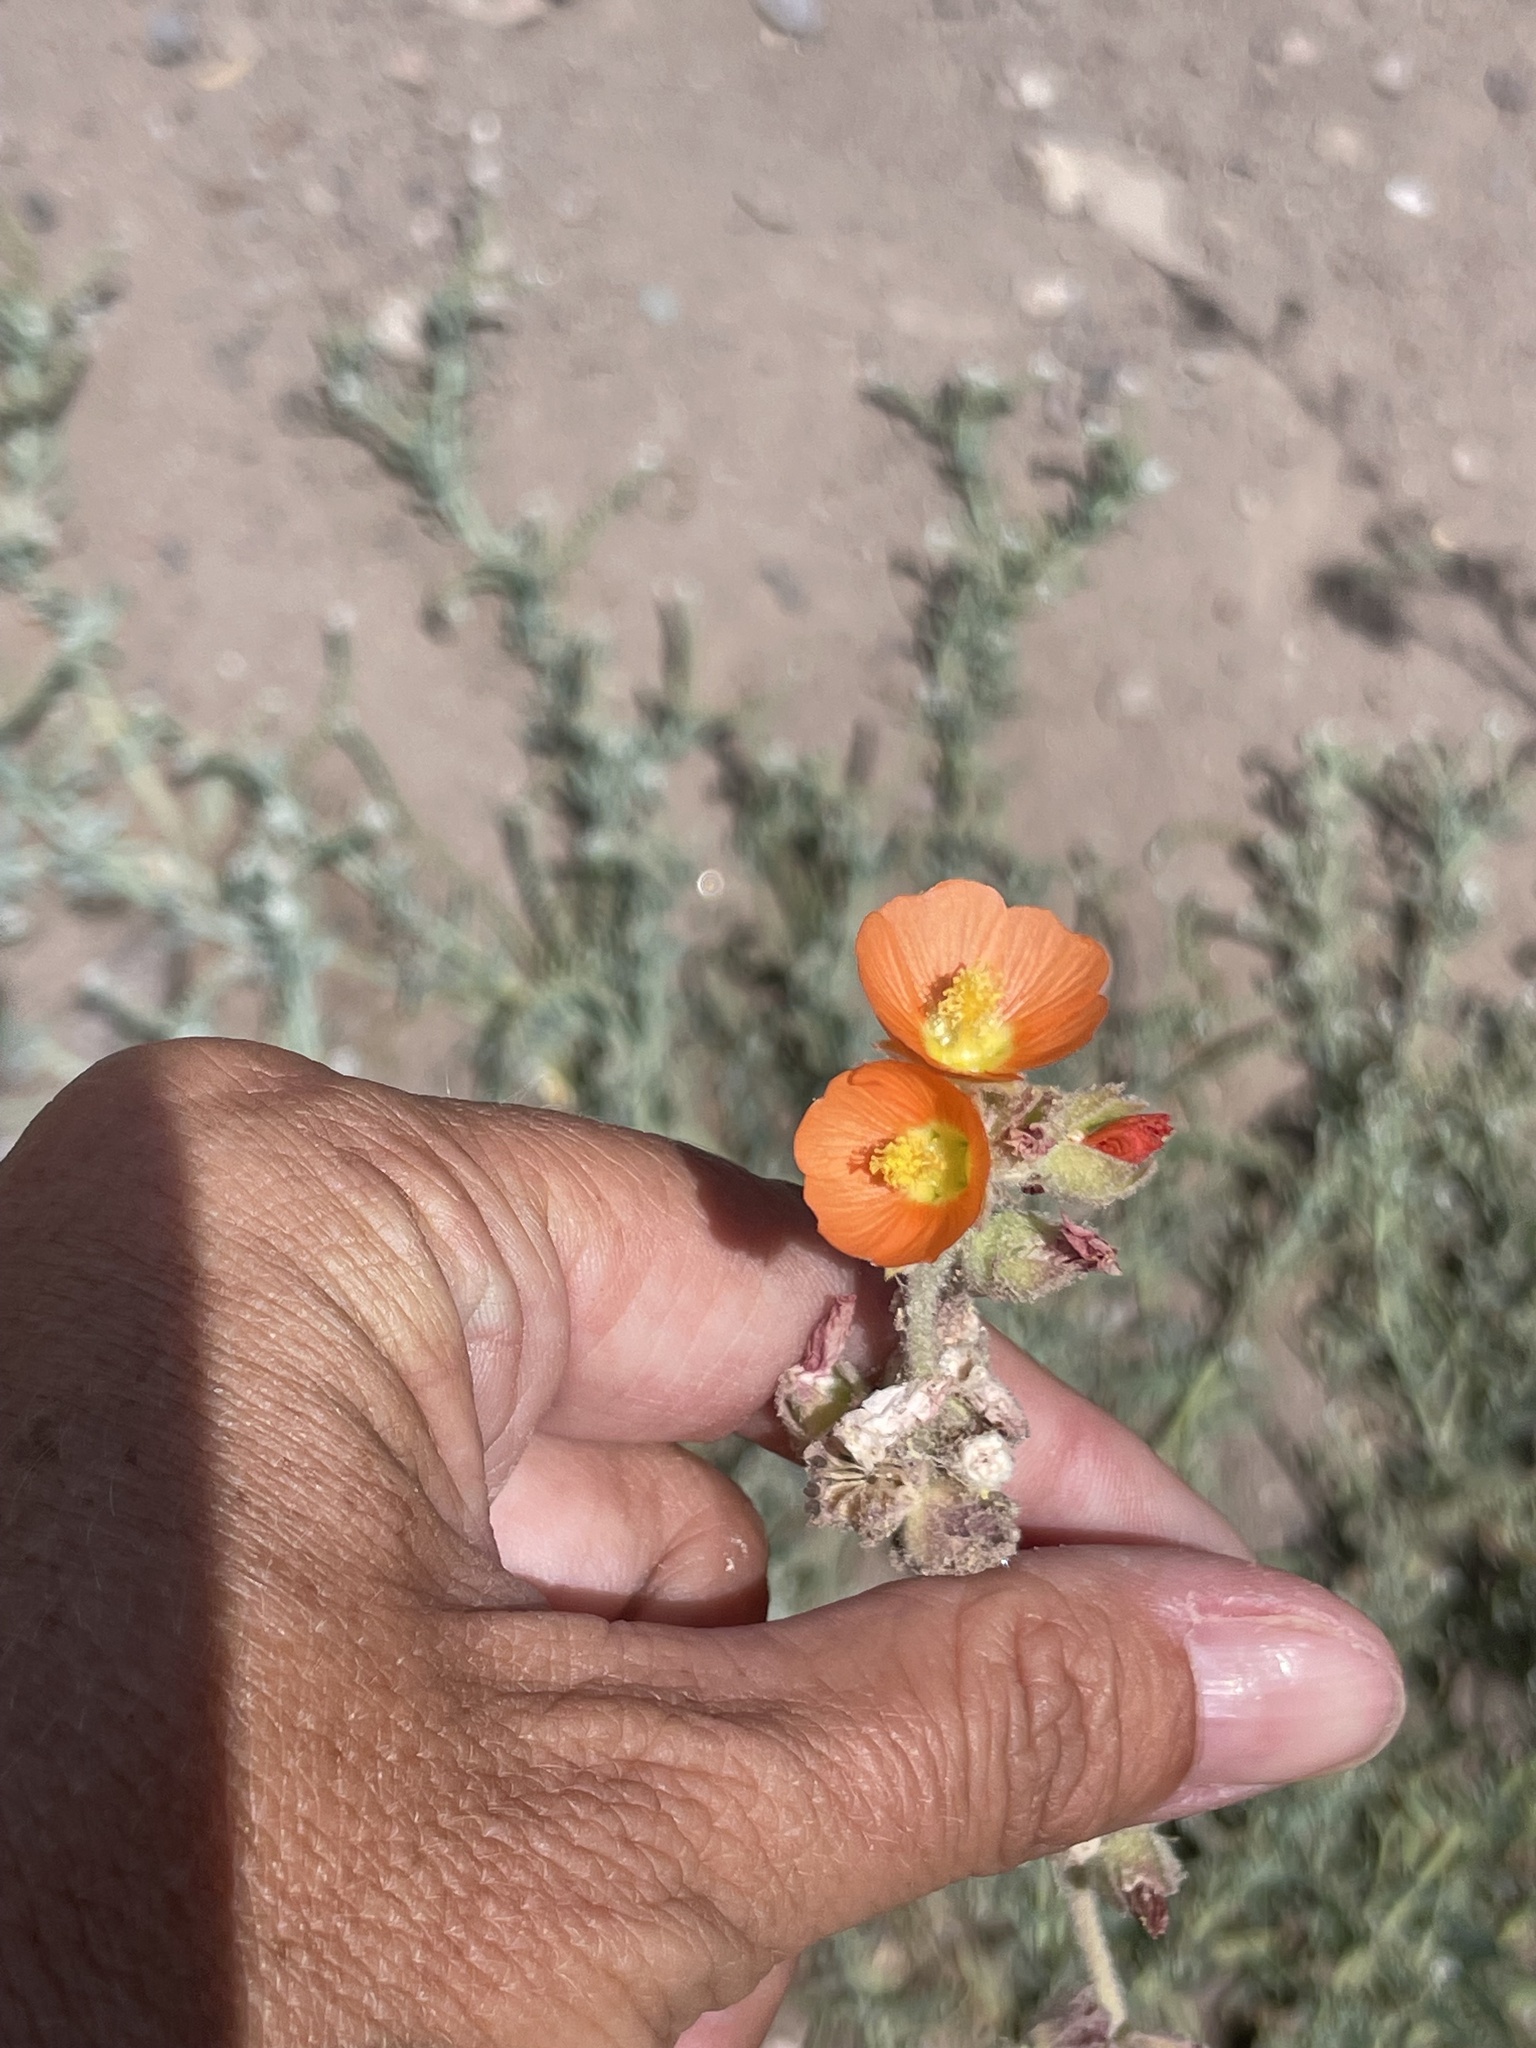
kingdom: Plantae
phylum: Tracheophyta
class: Magnoliopsida
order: Malvales
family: Malvaceae
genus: Sphaeralcea
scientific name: Sphaeralcea coulteri
